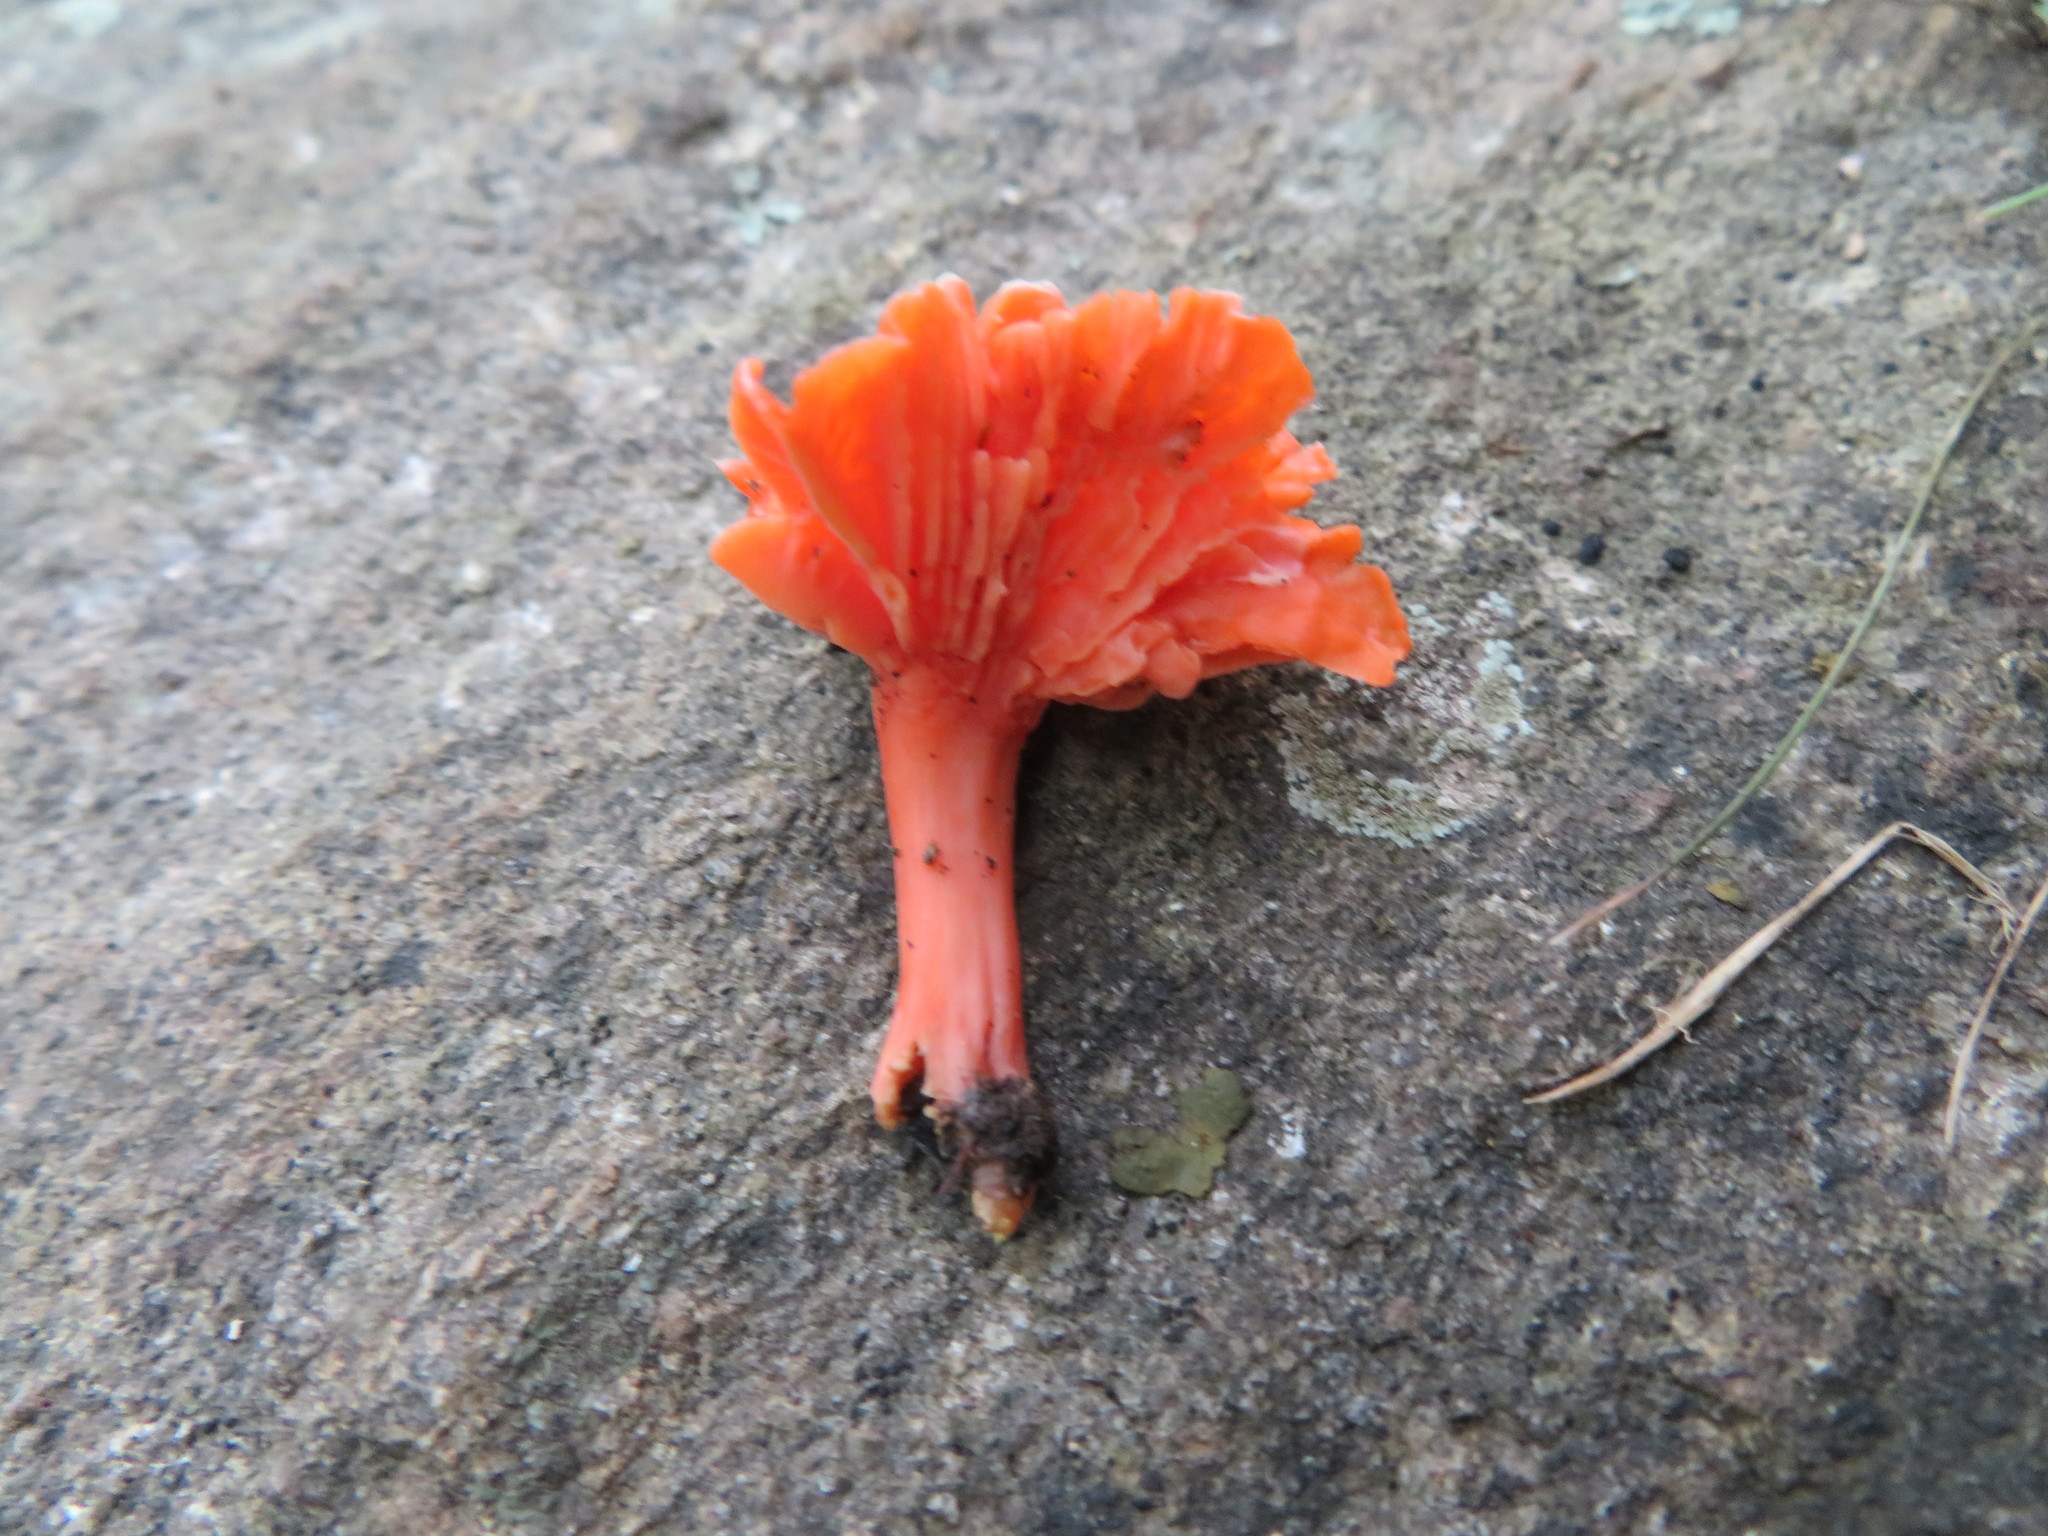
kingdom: Fungi
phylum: Basidiomycota
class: Agaricomycetes
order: Cantharellales
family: Hydnaceae
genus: Cantharellus
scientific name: Cantharellus cinnabarinus
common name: Cinnabar chanterelle
